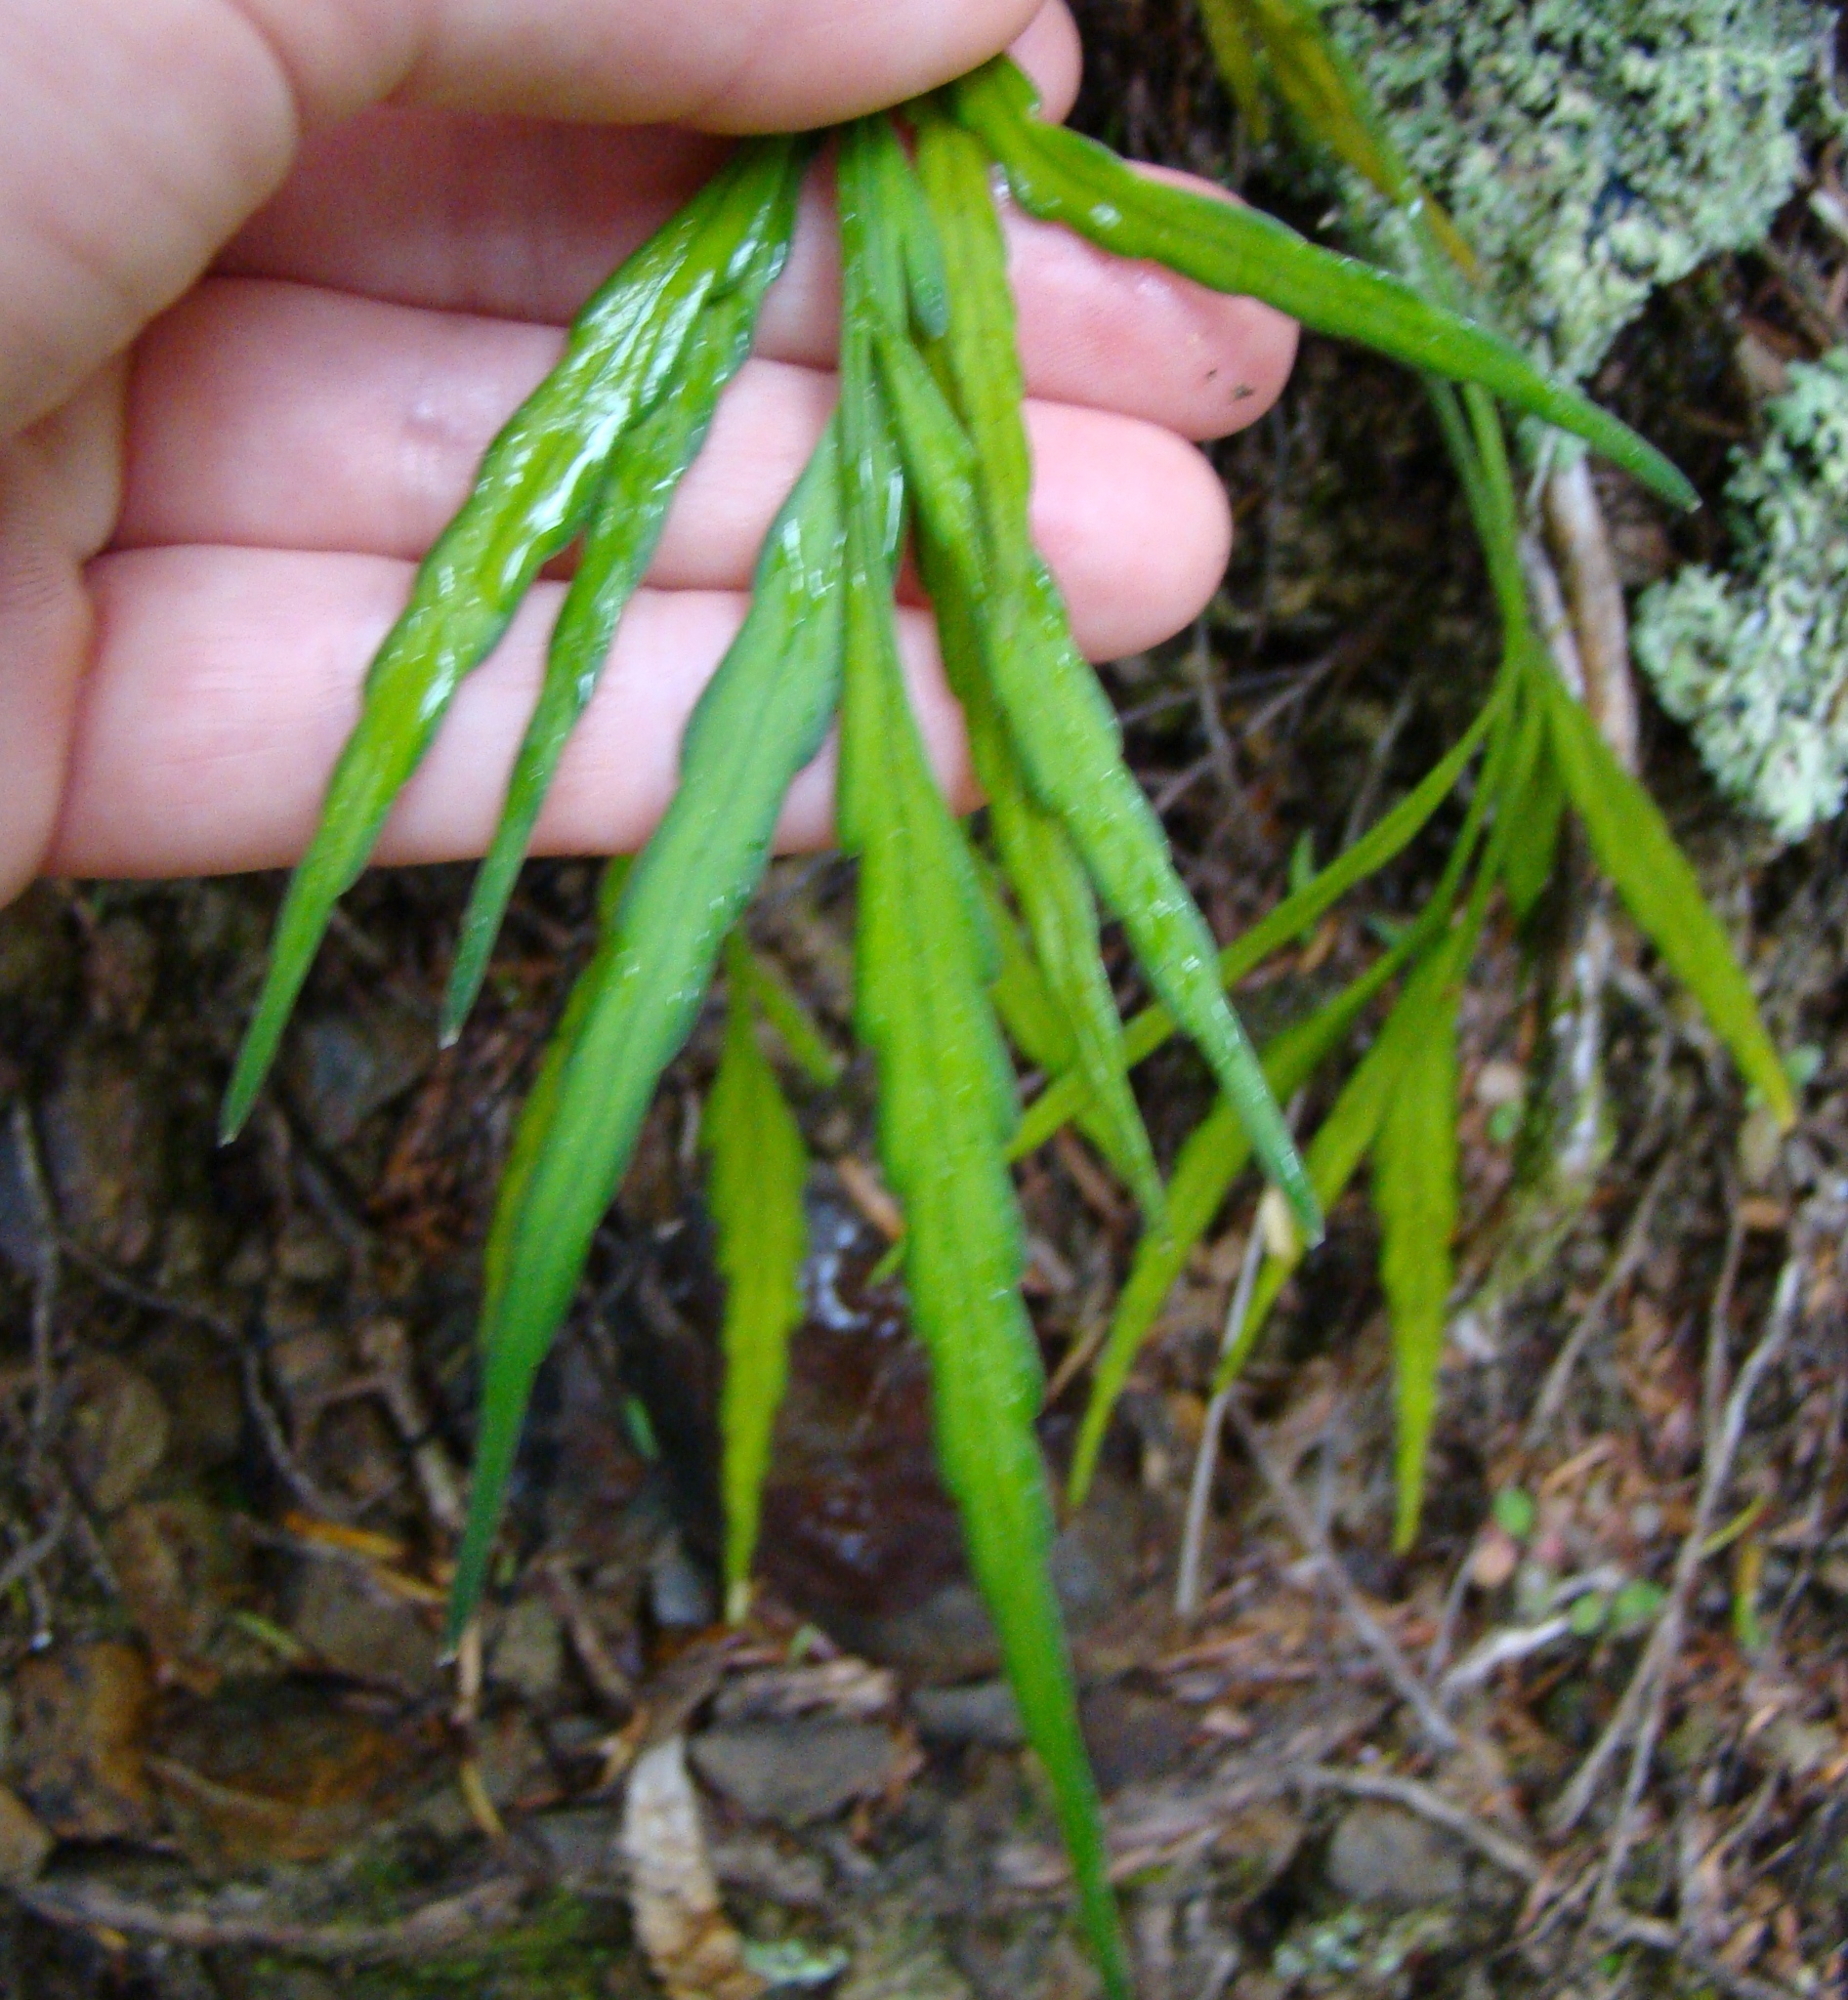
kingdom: Plantae
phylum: Tracheophyta
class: Polypodiopsida
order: Polypodiales
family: Aspleniaceae
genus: Asplenium
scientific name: Asplenium flaccidum
